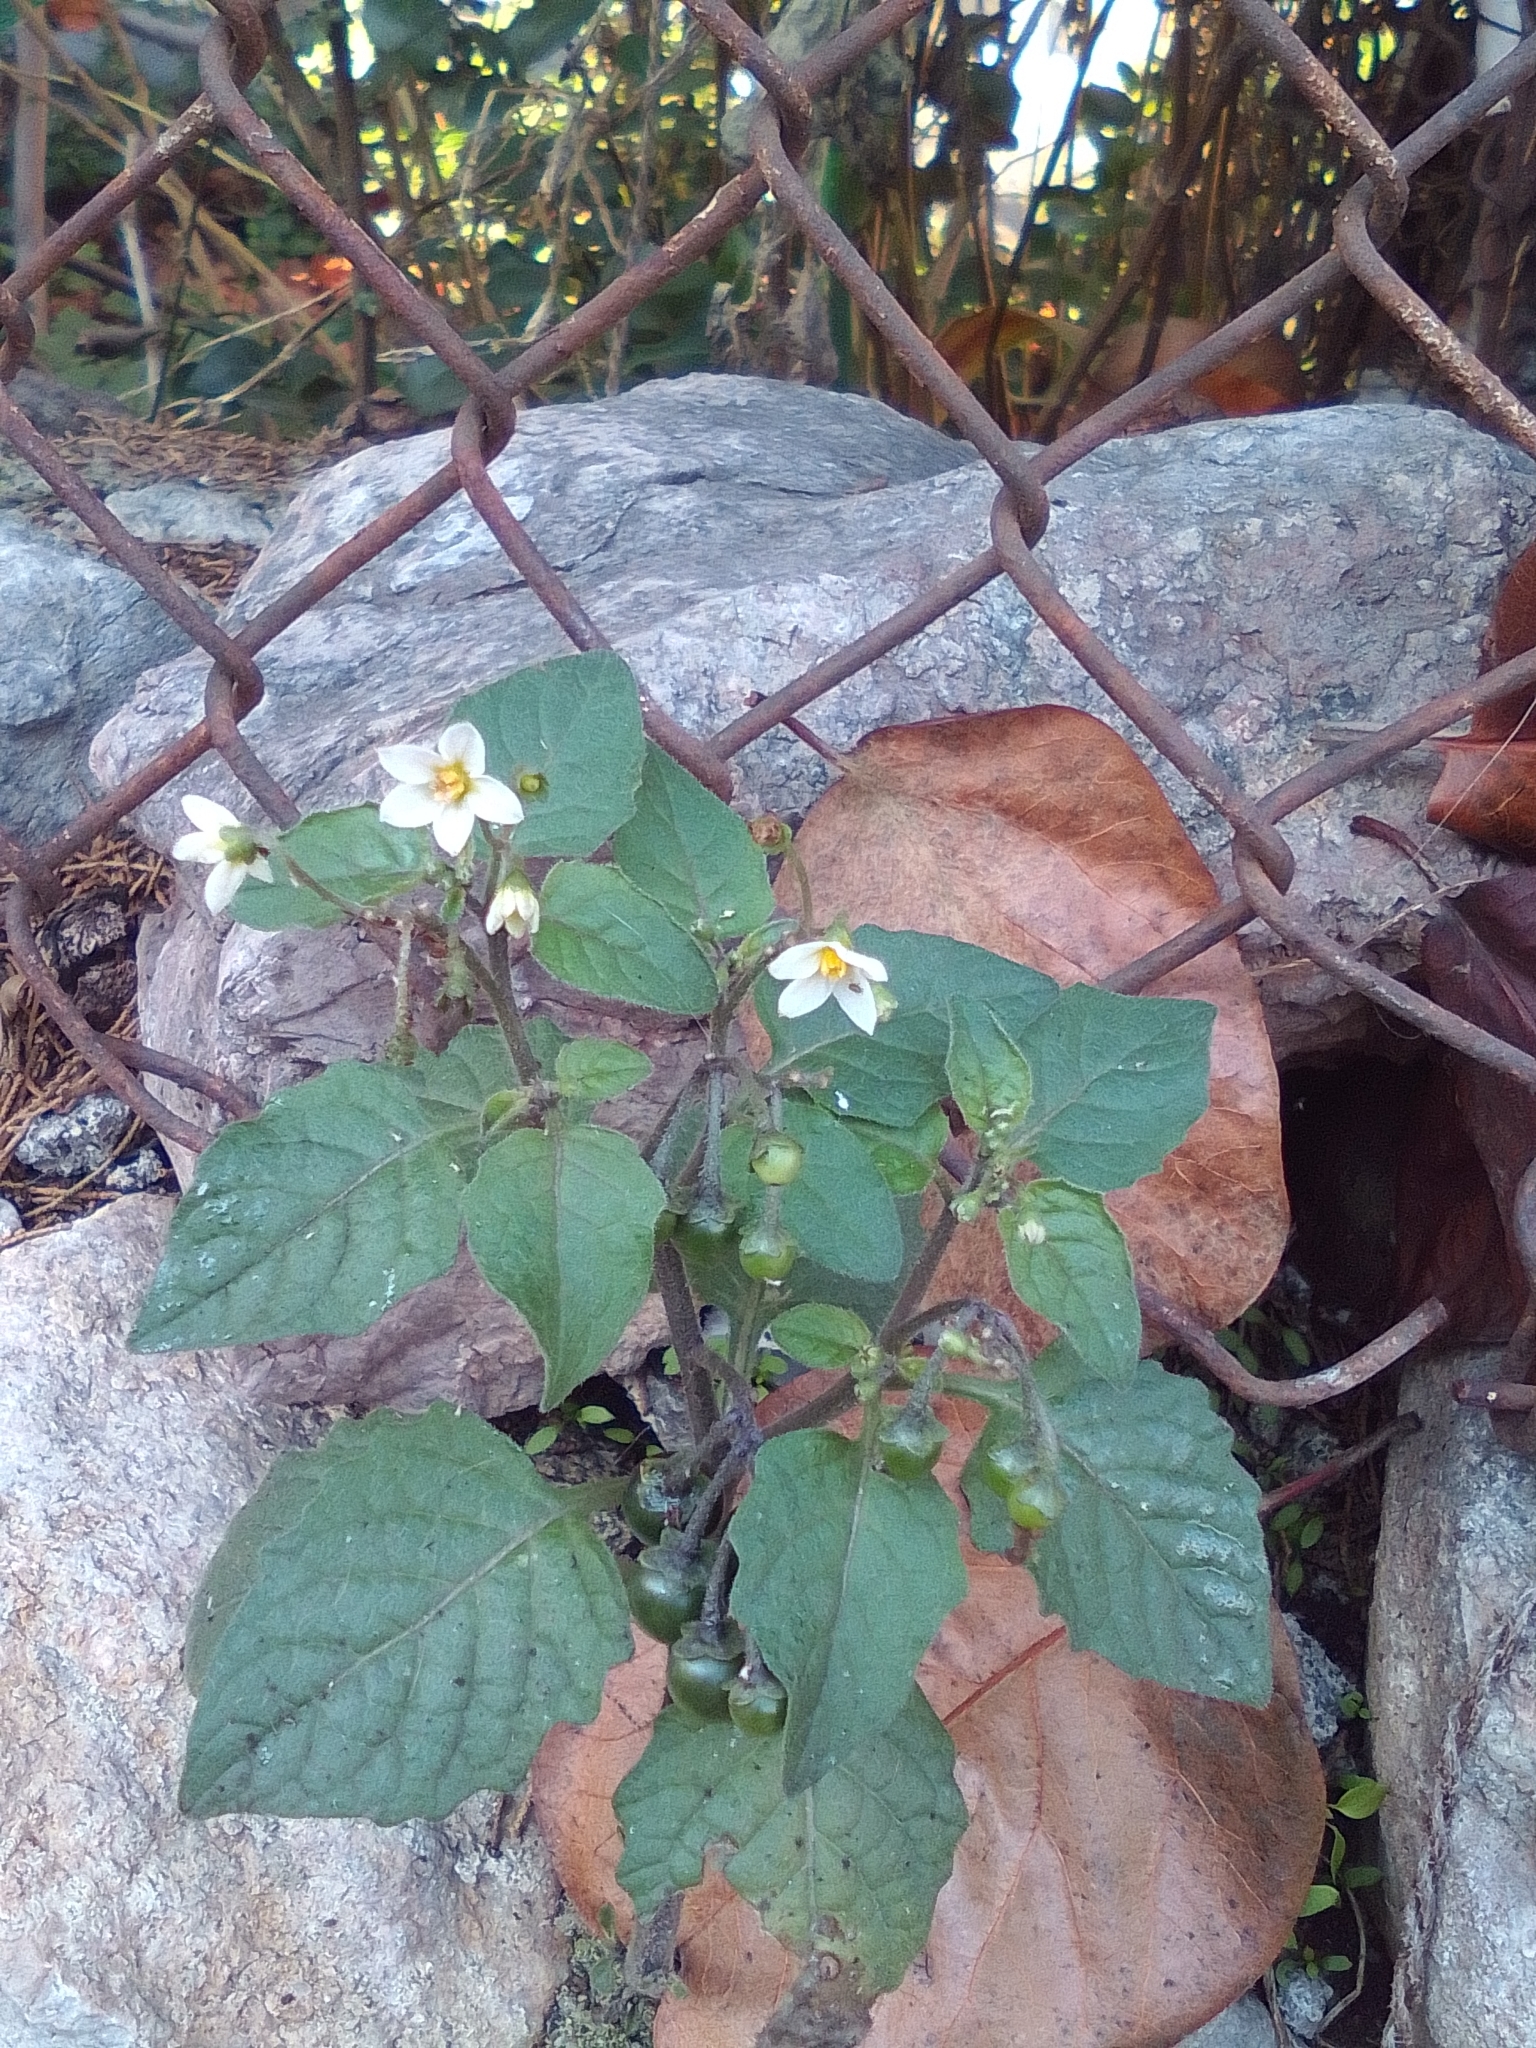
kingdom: Plantae
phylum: Tracheophyta
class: Magnoliopsida
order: Solanales
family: Solanaceae
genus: Solanum
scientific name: Solanum nigrum
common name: Black nightshade
